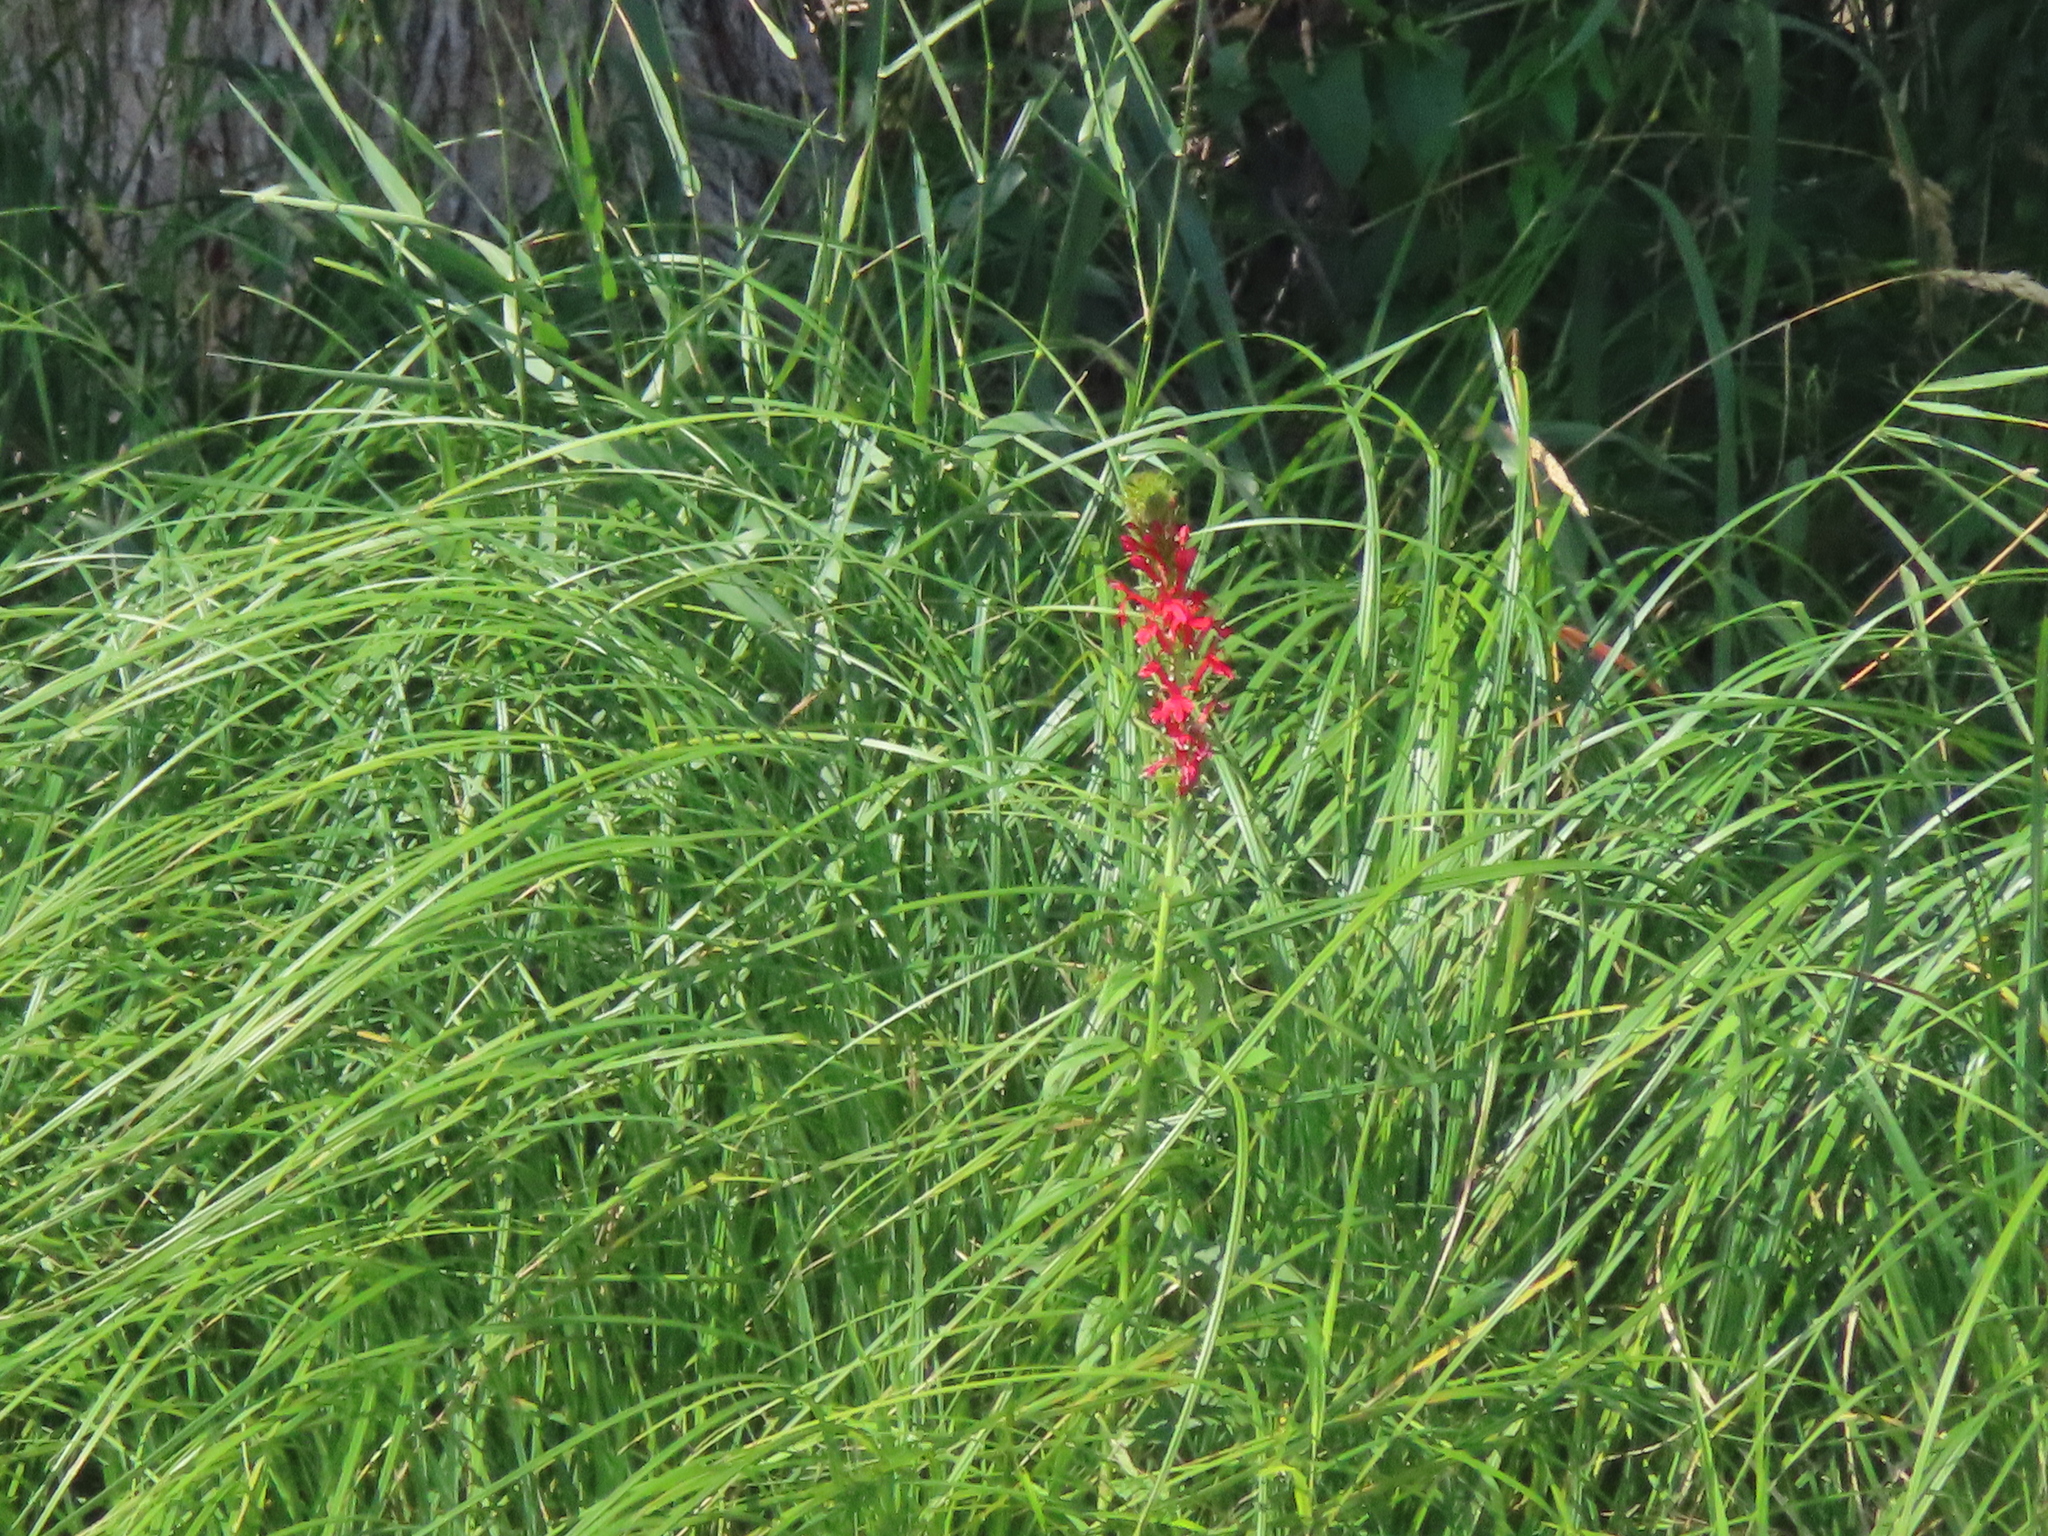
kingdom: Plantae
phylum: Tracheophyta
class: Magnoliopsida
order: Asterales
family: Campanulaceae
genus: Lobelia
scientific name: Lobelia cardinalis
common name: Cardinal flower
